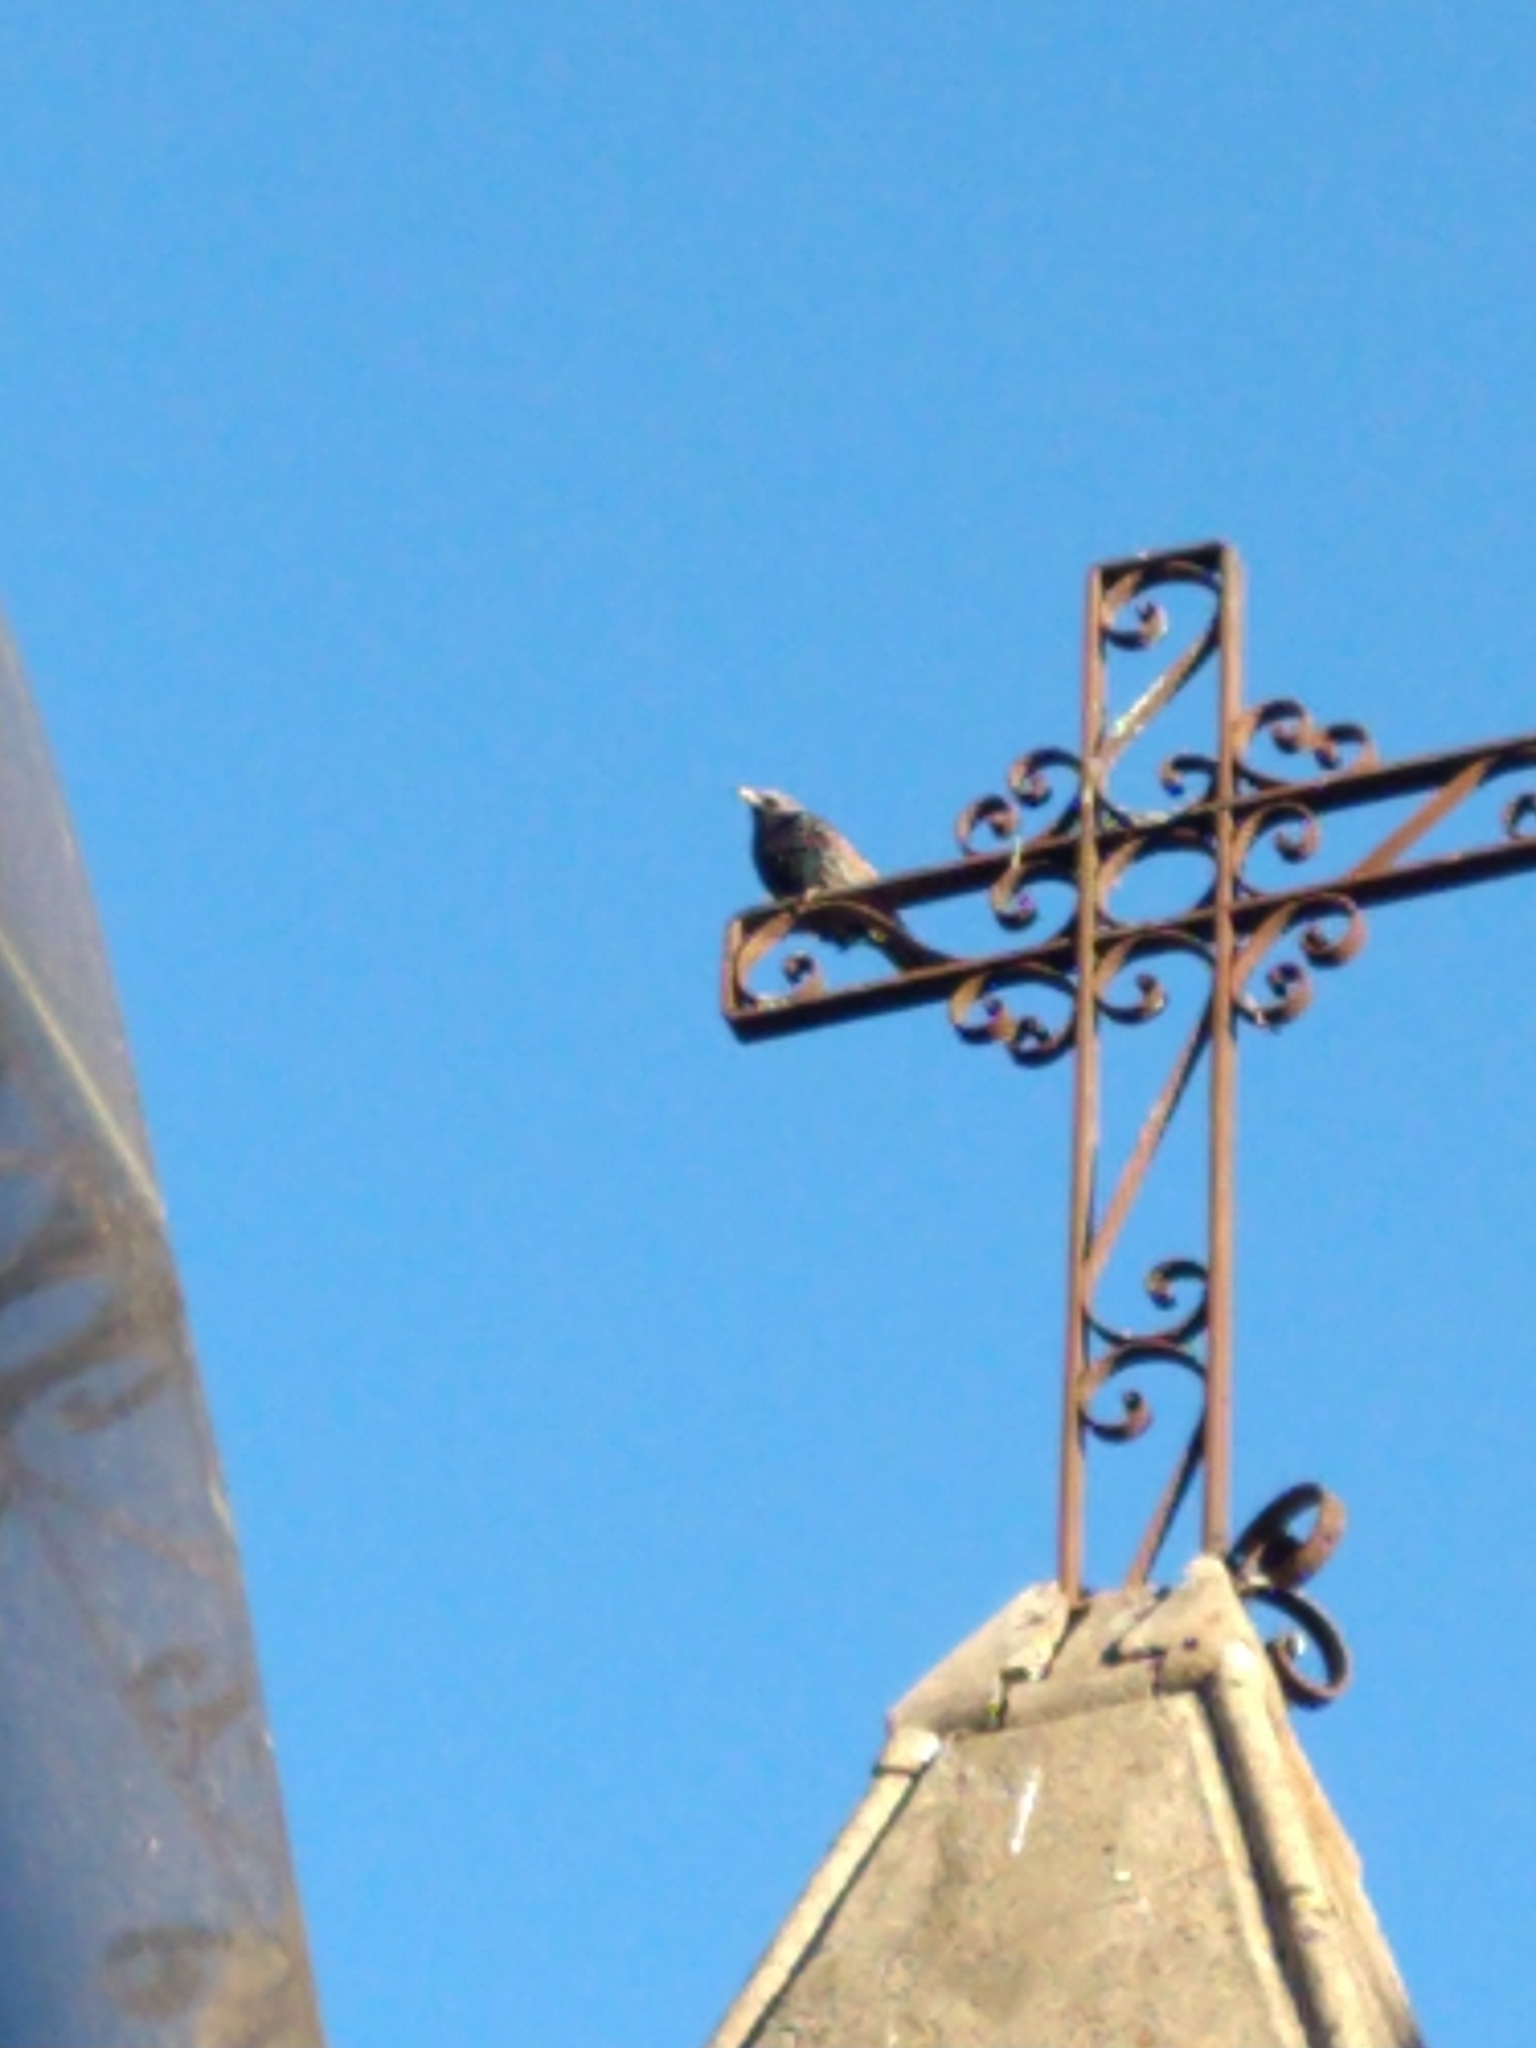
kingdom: Animalia
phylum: Chordata
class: Aves
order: Passeriformes
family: Sturnidae
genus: Sturnus
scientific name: Sturnus vulgaris
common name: Common starling
